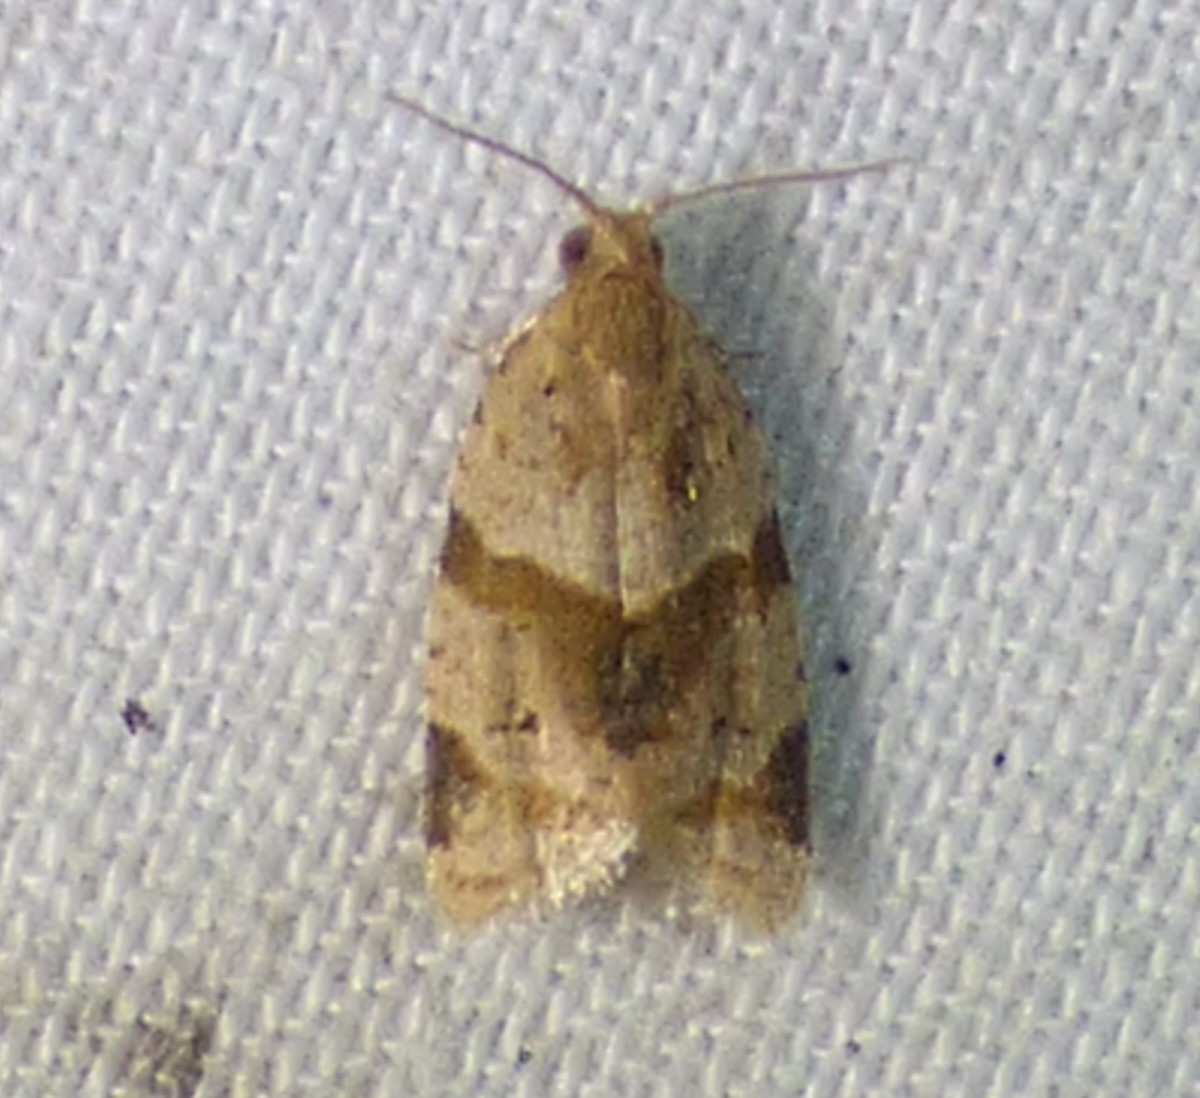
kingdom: Animalia
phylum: Arthropoda
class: Insecta
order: Lepidoptera
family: Tortricidae
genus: Clepsis
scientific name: Clepsis peritana
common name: Garden tortrix
